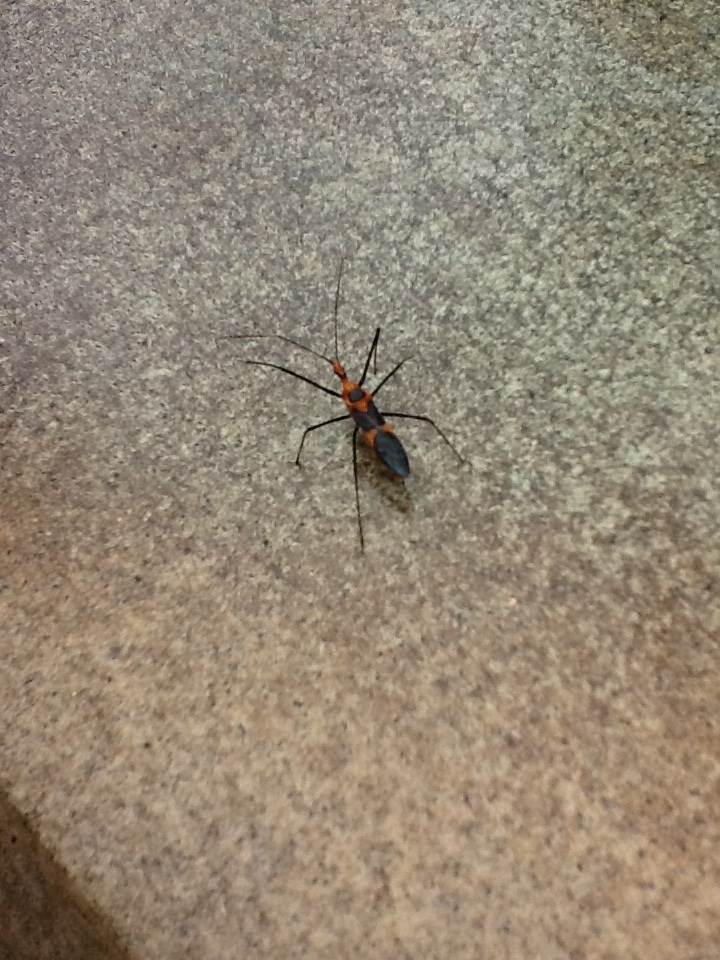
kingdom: Animalia
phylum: Arthropoda
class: Insecta
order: Hemiptera
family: Reduviidae
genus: Zelus
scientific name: Zelus longipes
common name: Milkweed assassin bug
